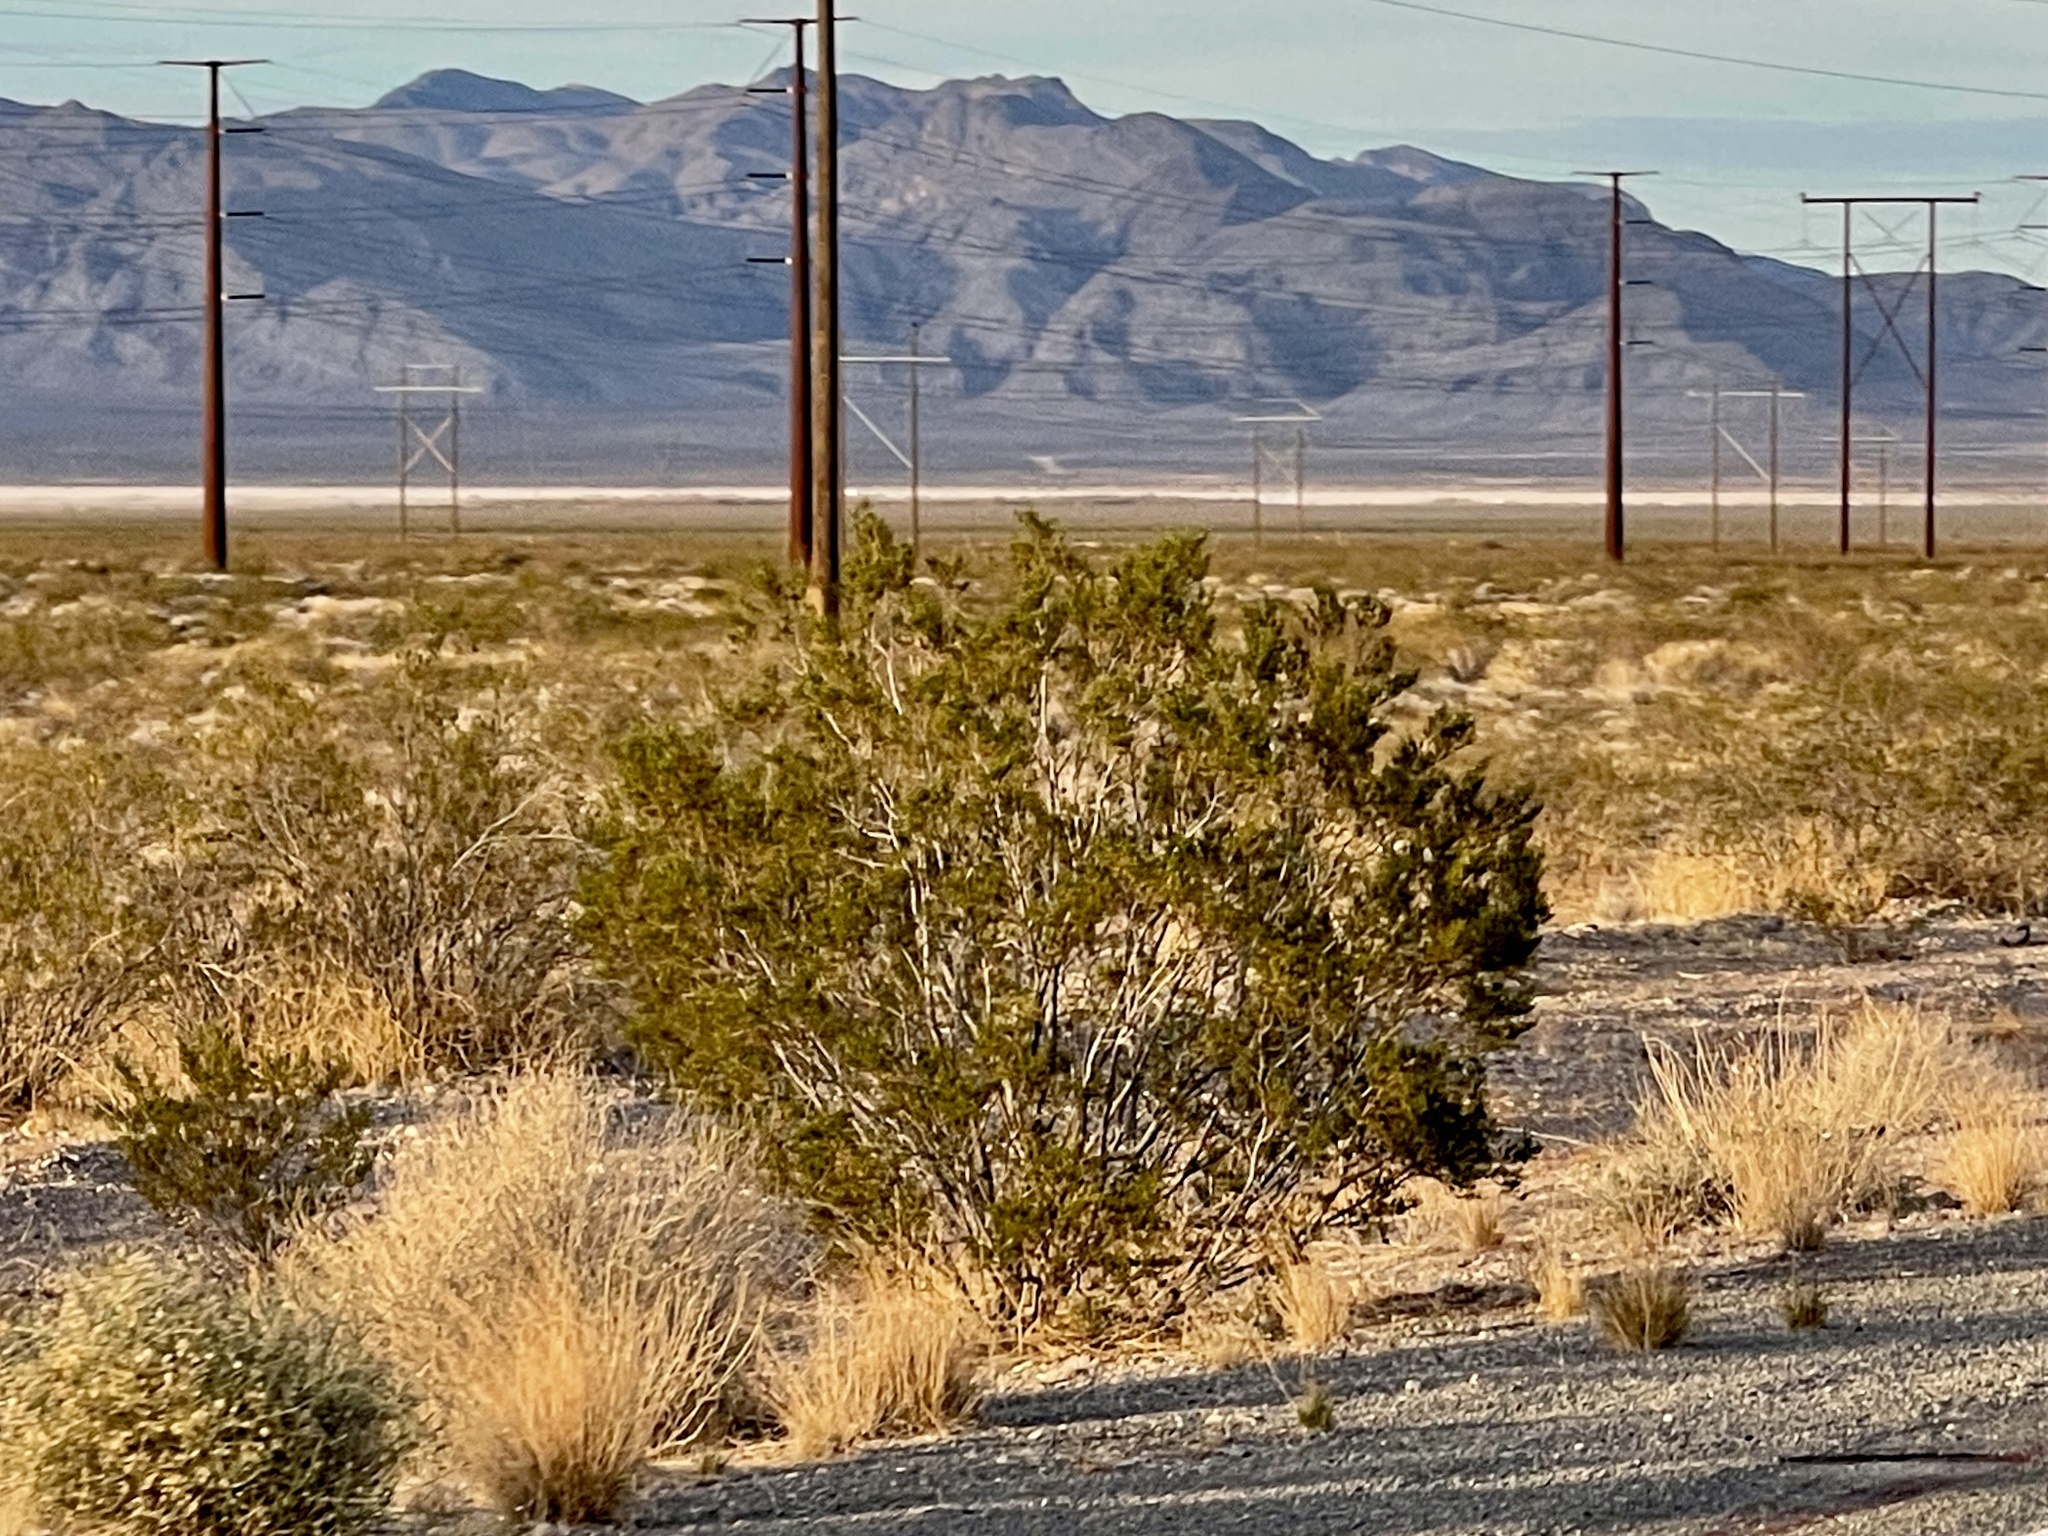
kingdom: Plantae
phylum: Tracheophyta
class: Magnoliopsida
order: Zygophyllales
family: Zygophyllaceae
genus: Larrea
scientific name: Larrea tridentata
